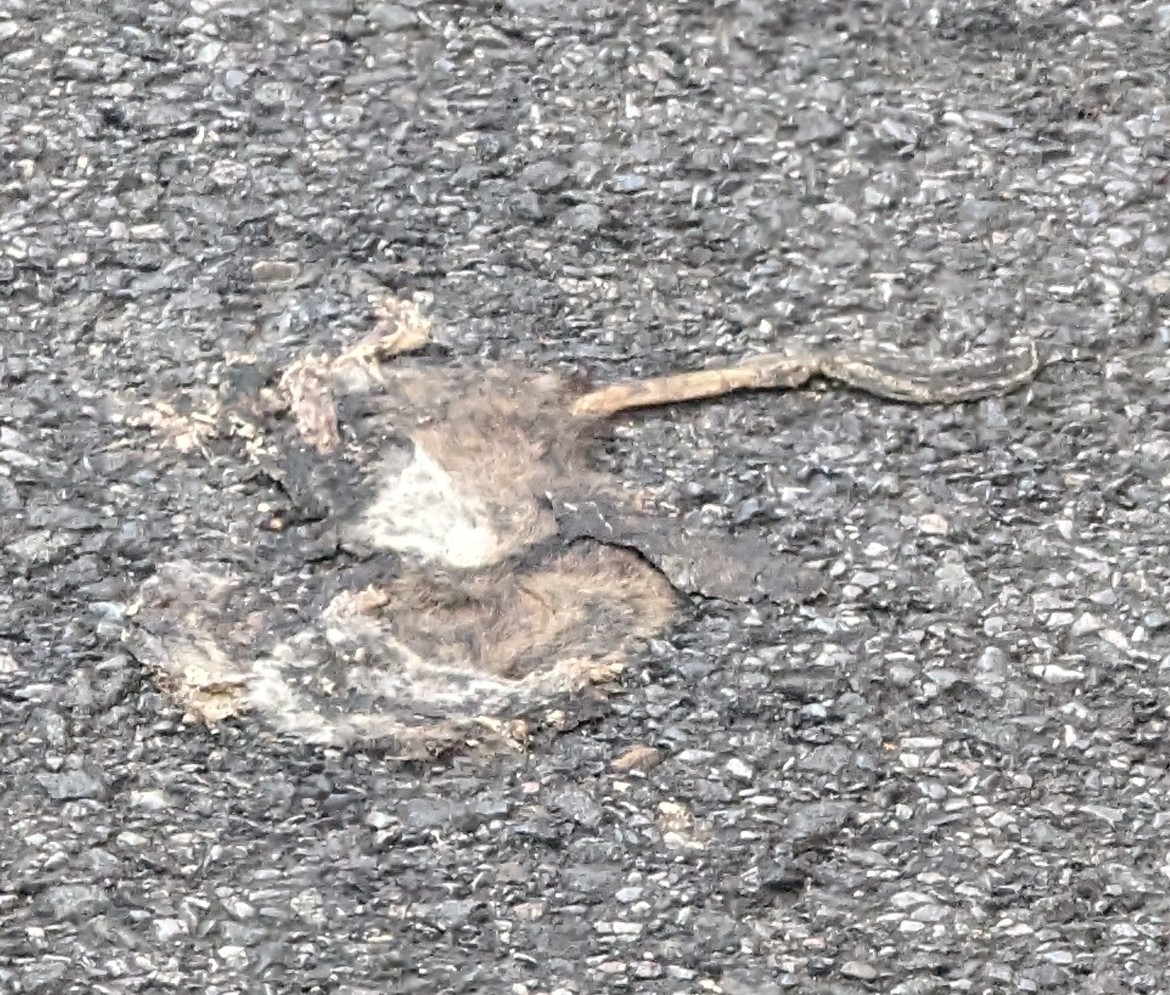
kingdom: Animalia
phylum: Chordata
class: Mammalia
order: Rodentia
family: Muridae
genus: Rattus
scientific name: Rattus norvegicus
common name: Brown rat
